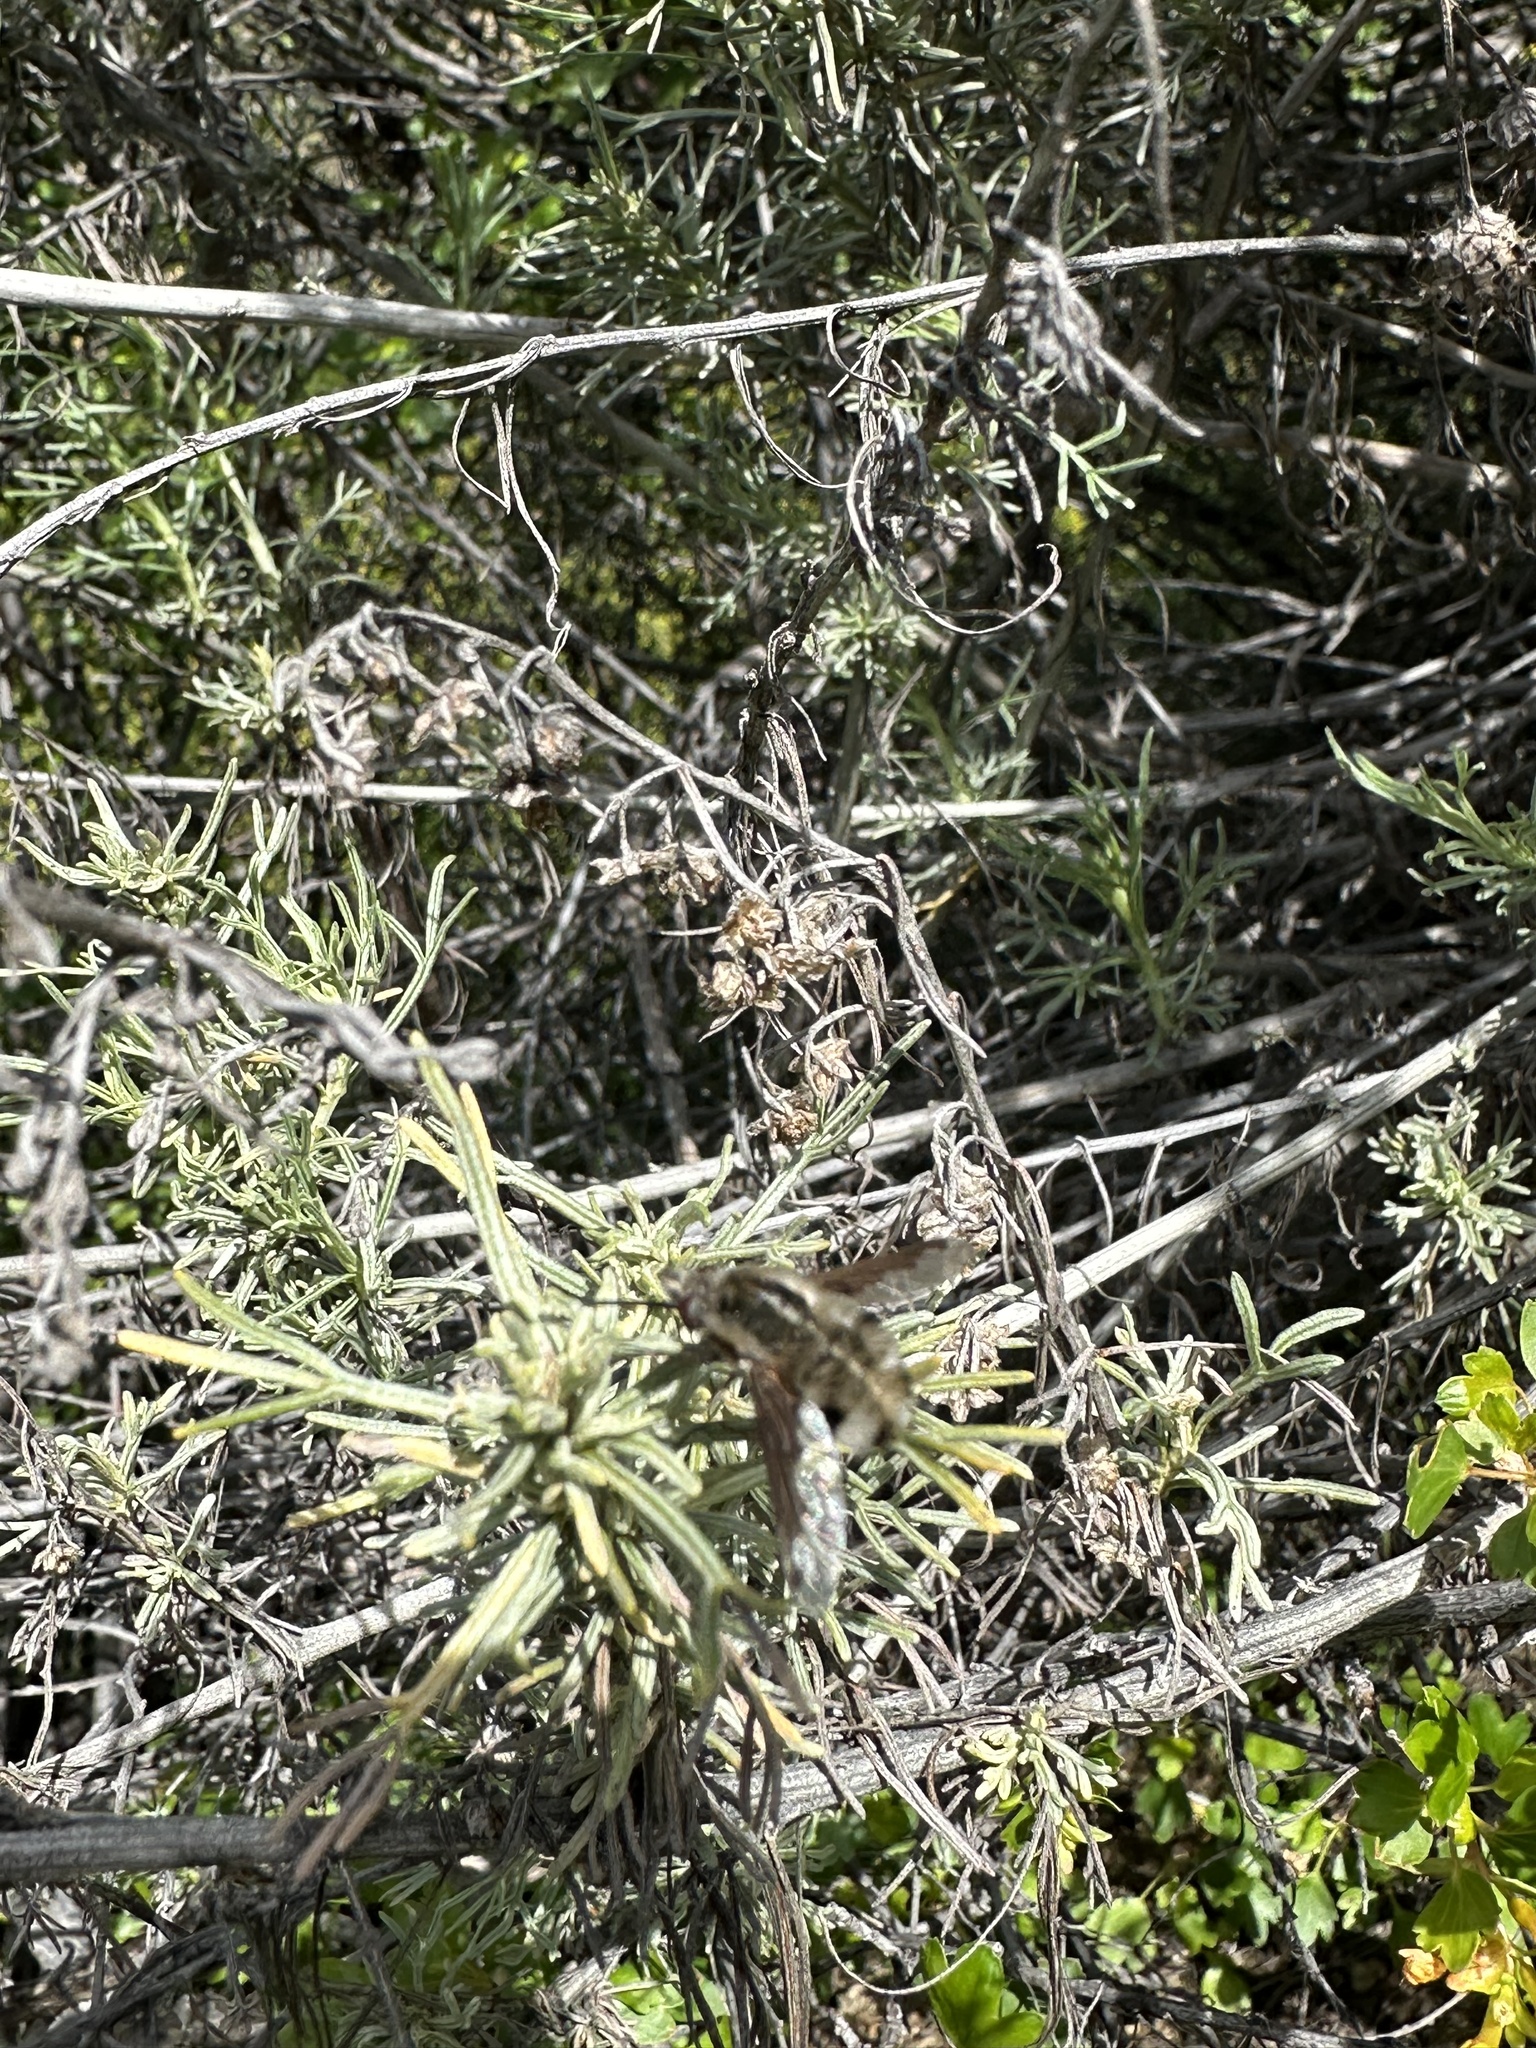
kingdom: Animalia
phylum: Arthropoda
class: Insecta
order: Diptera
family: Bombyliidae
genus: Bombylius
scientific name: Bombylius major
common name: Bee fly
